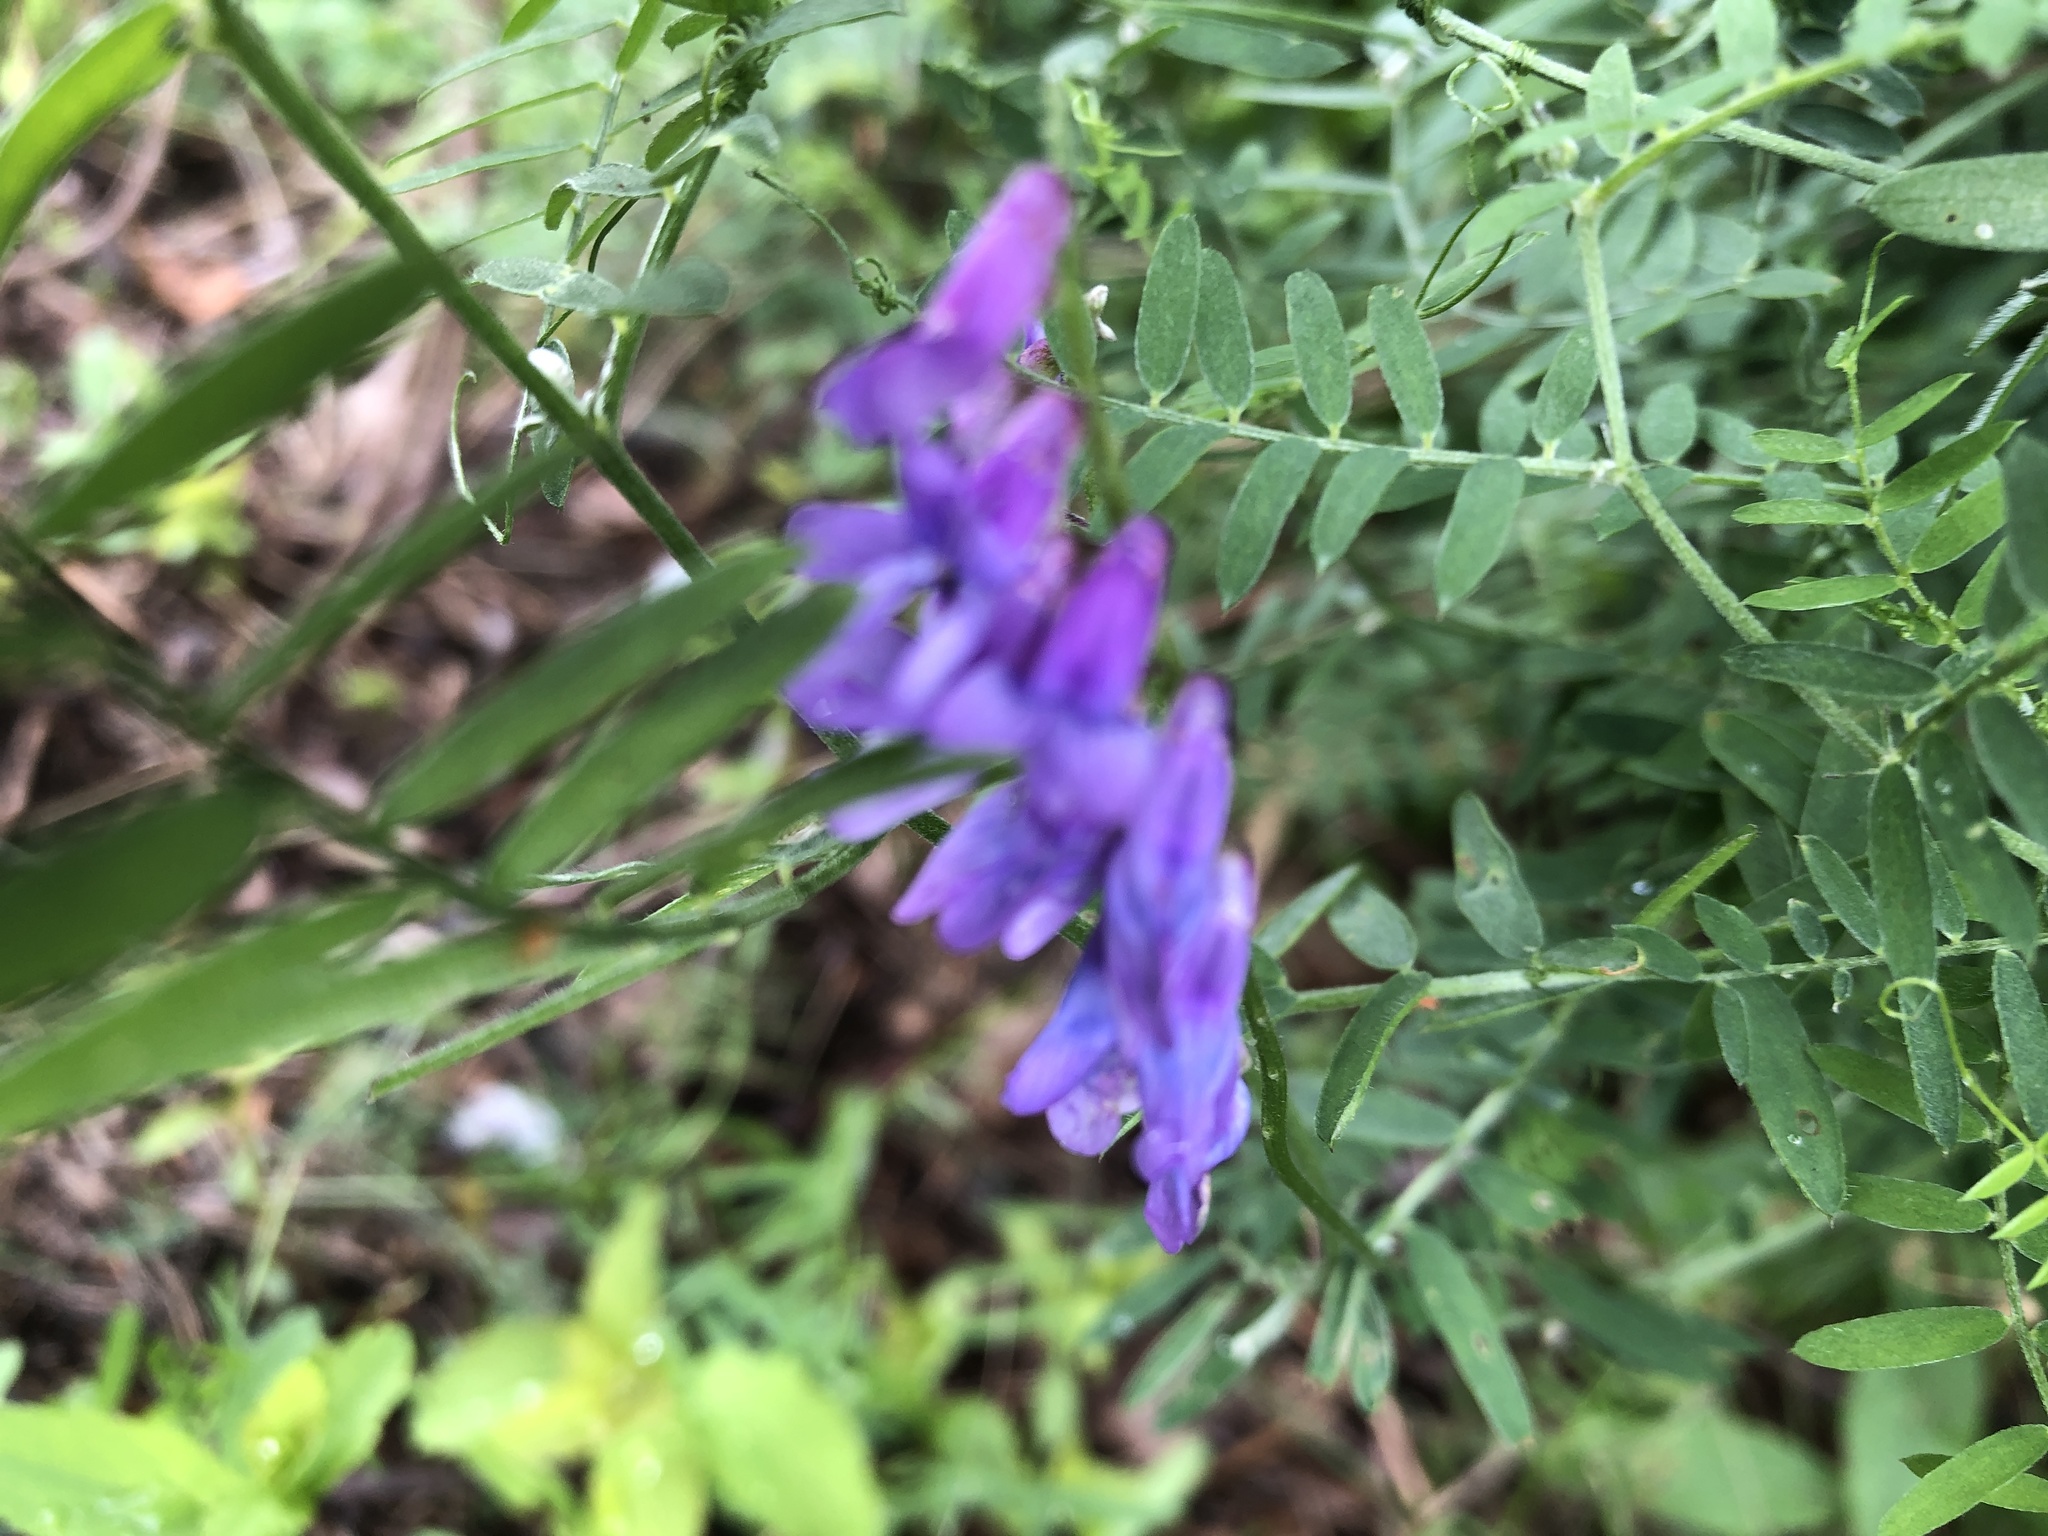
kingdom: Plantae
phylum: Tracheophyta
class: Magnoliopsida
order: Fabales
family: Fabaceae
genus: Vicia
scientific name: Vicia cracca
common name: Bird vetch
